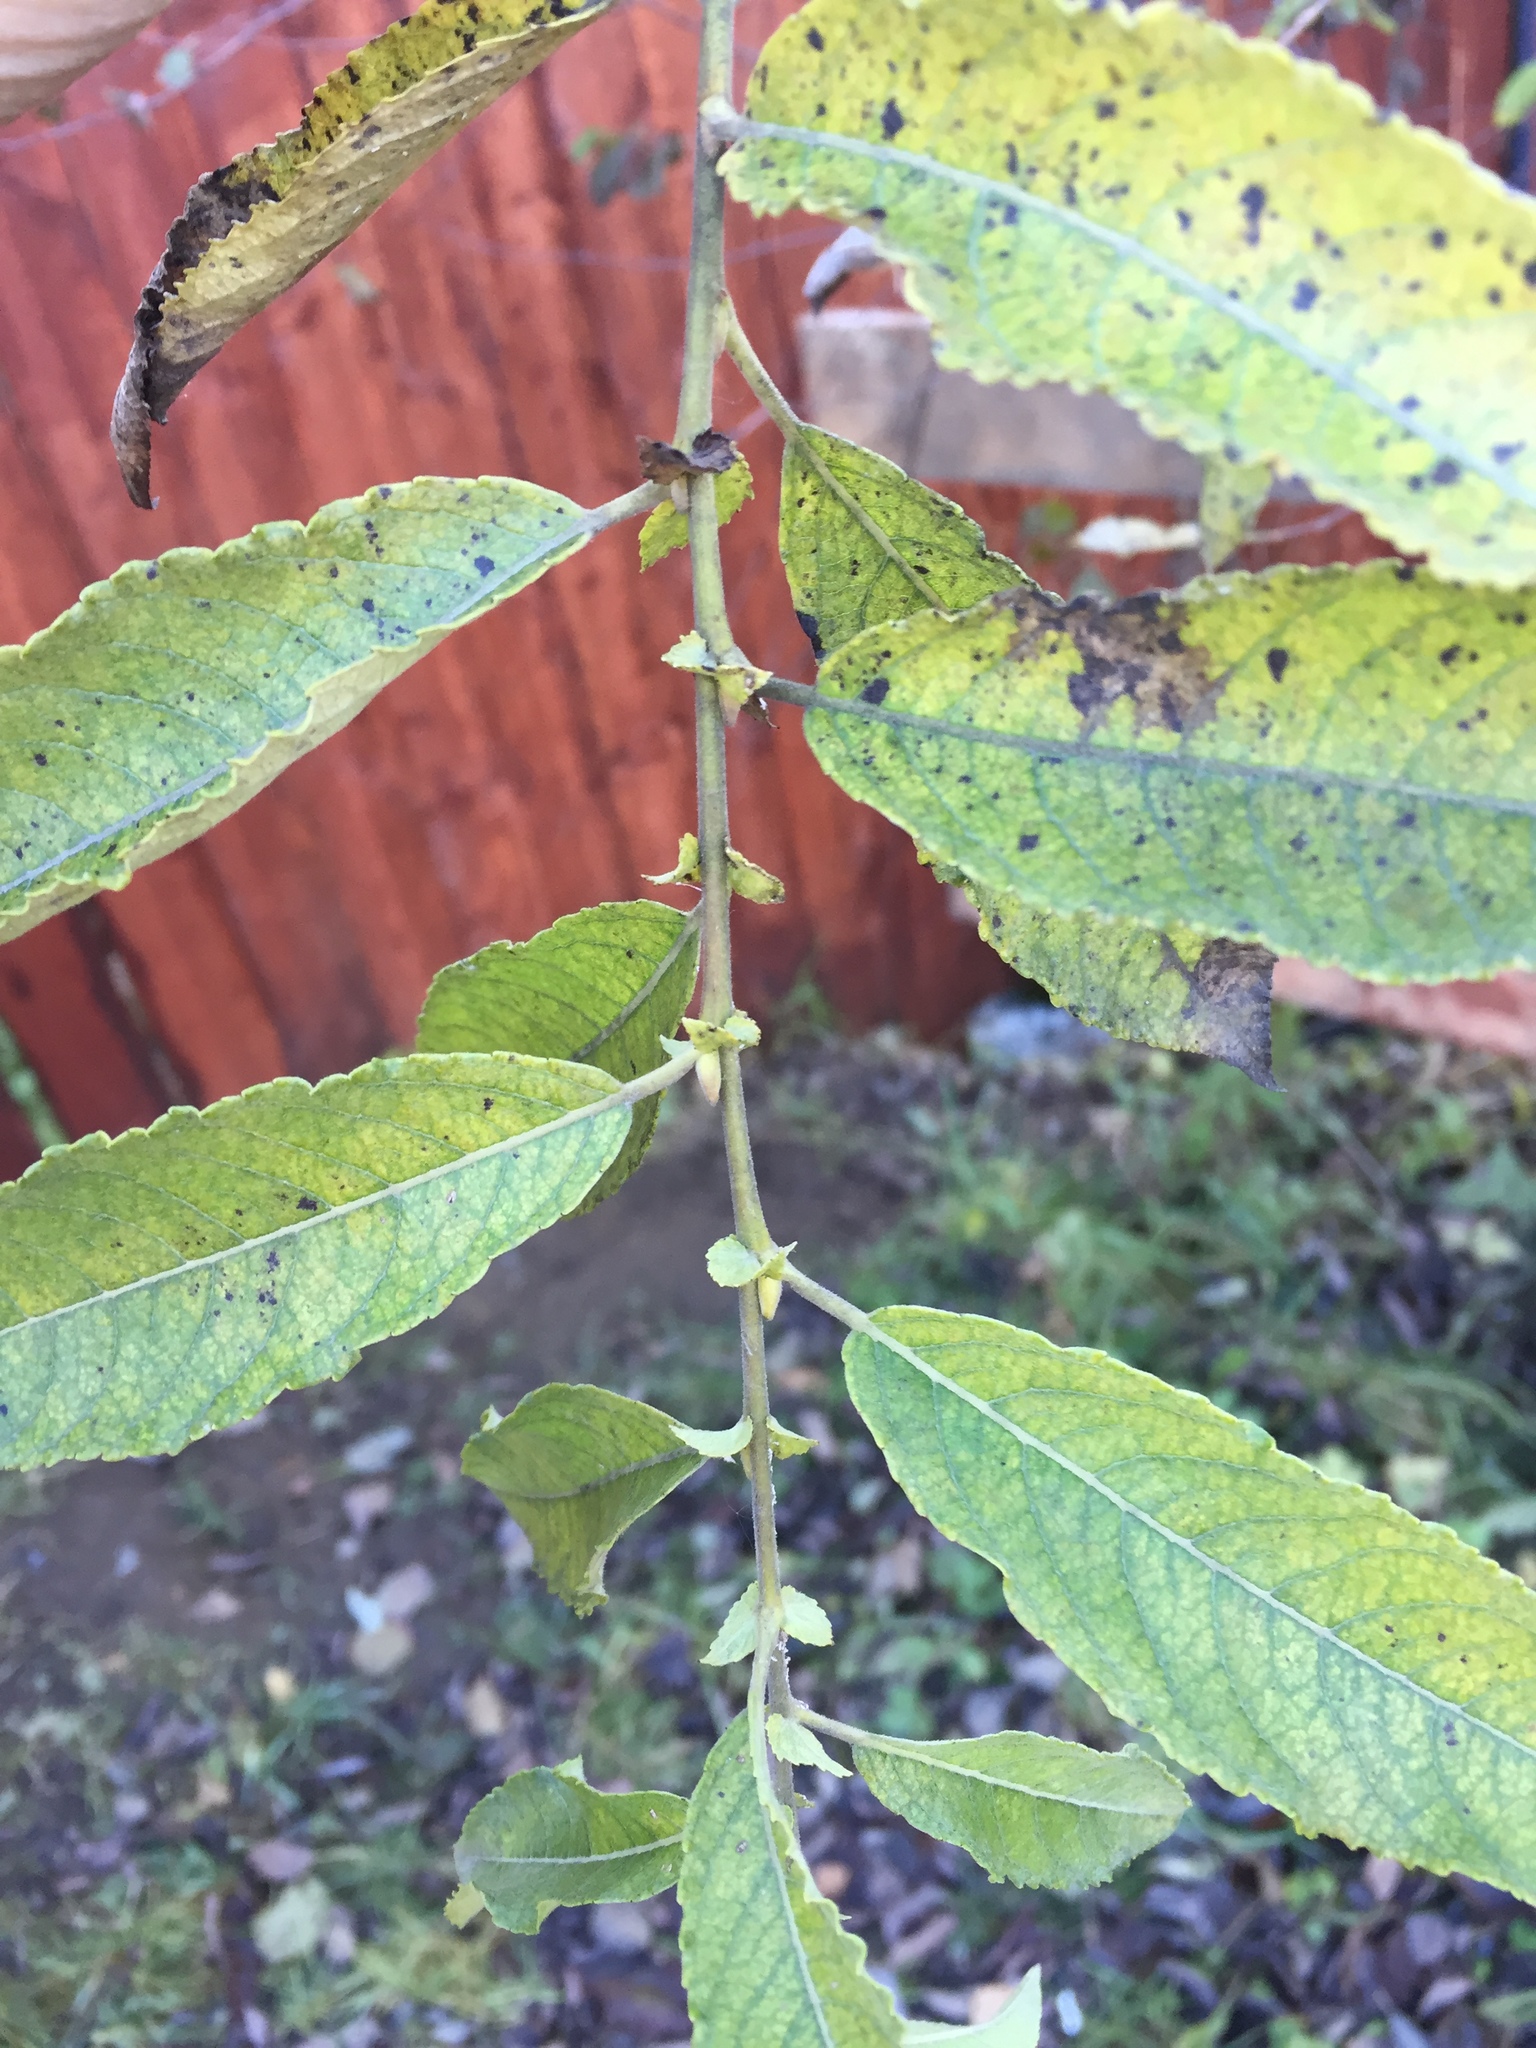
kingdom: Plantae
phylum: Tracheophyta
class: Magnoliopsida
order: Malpighiales
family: Salicaceae
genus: Salix
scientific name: Salix caprea
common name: Goat willow
